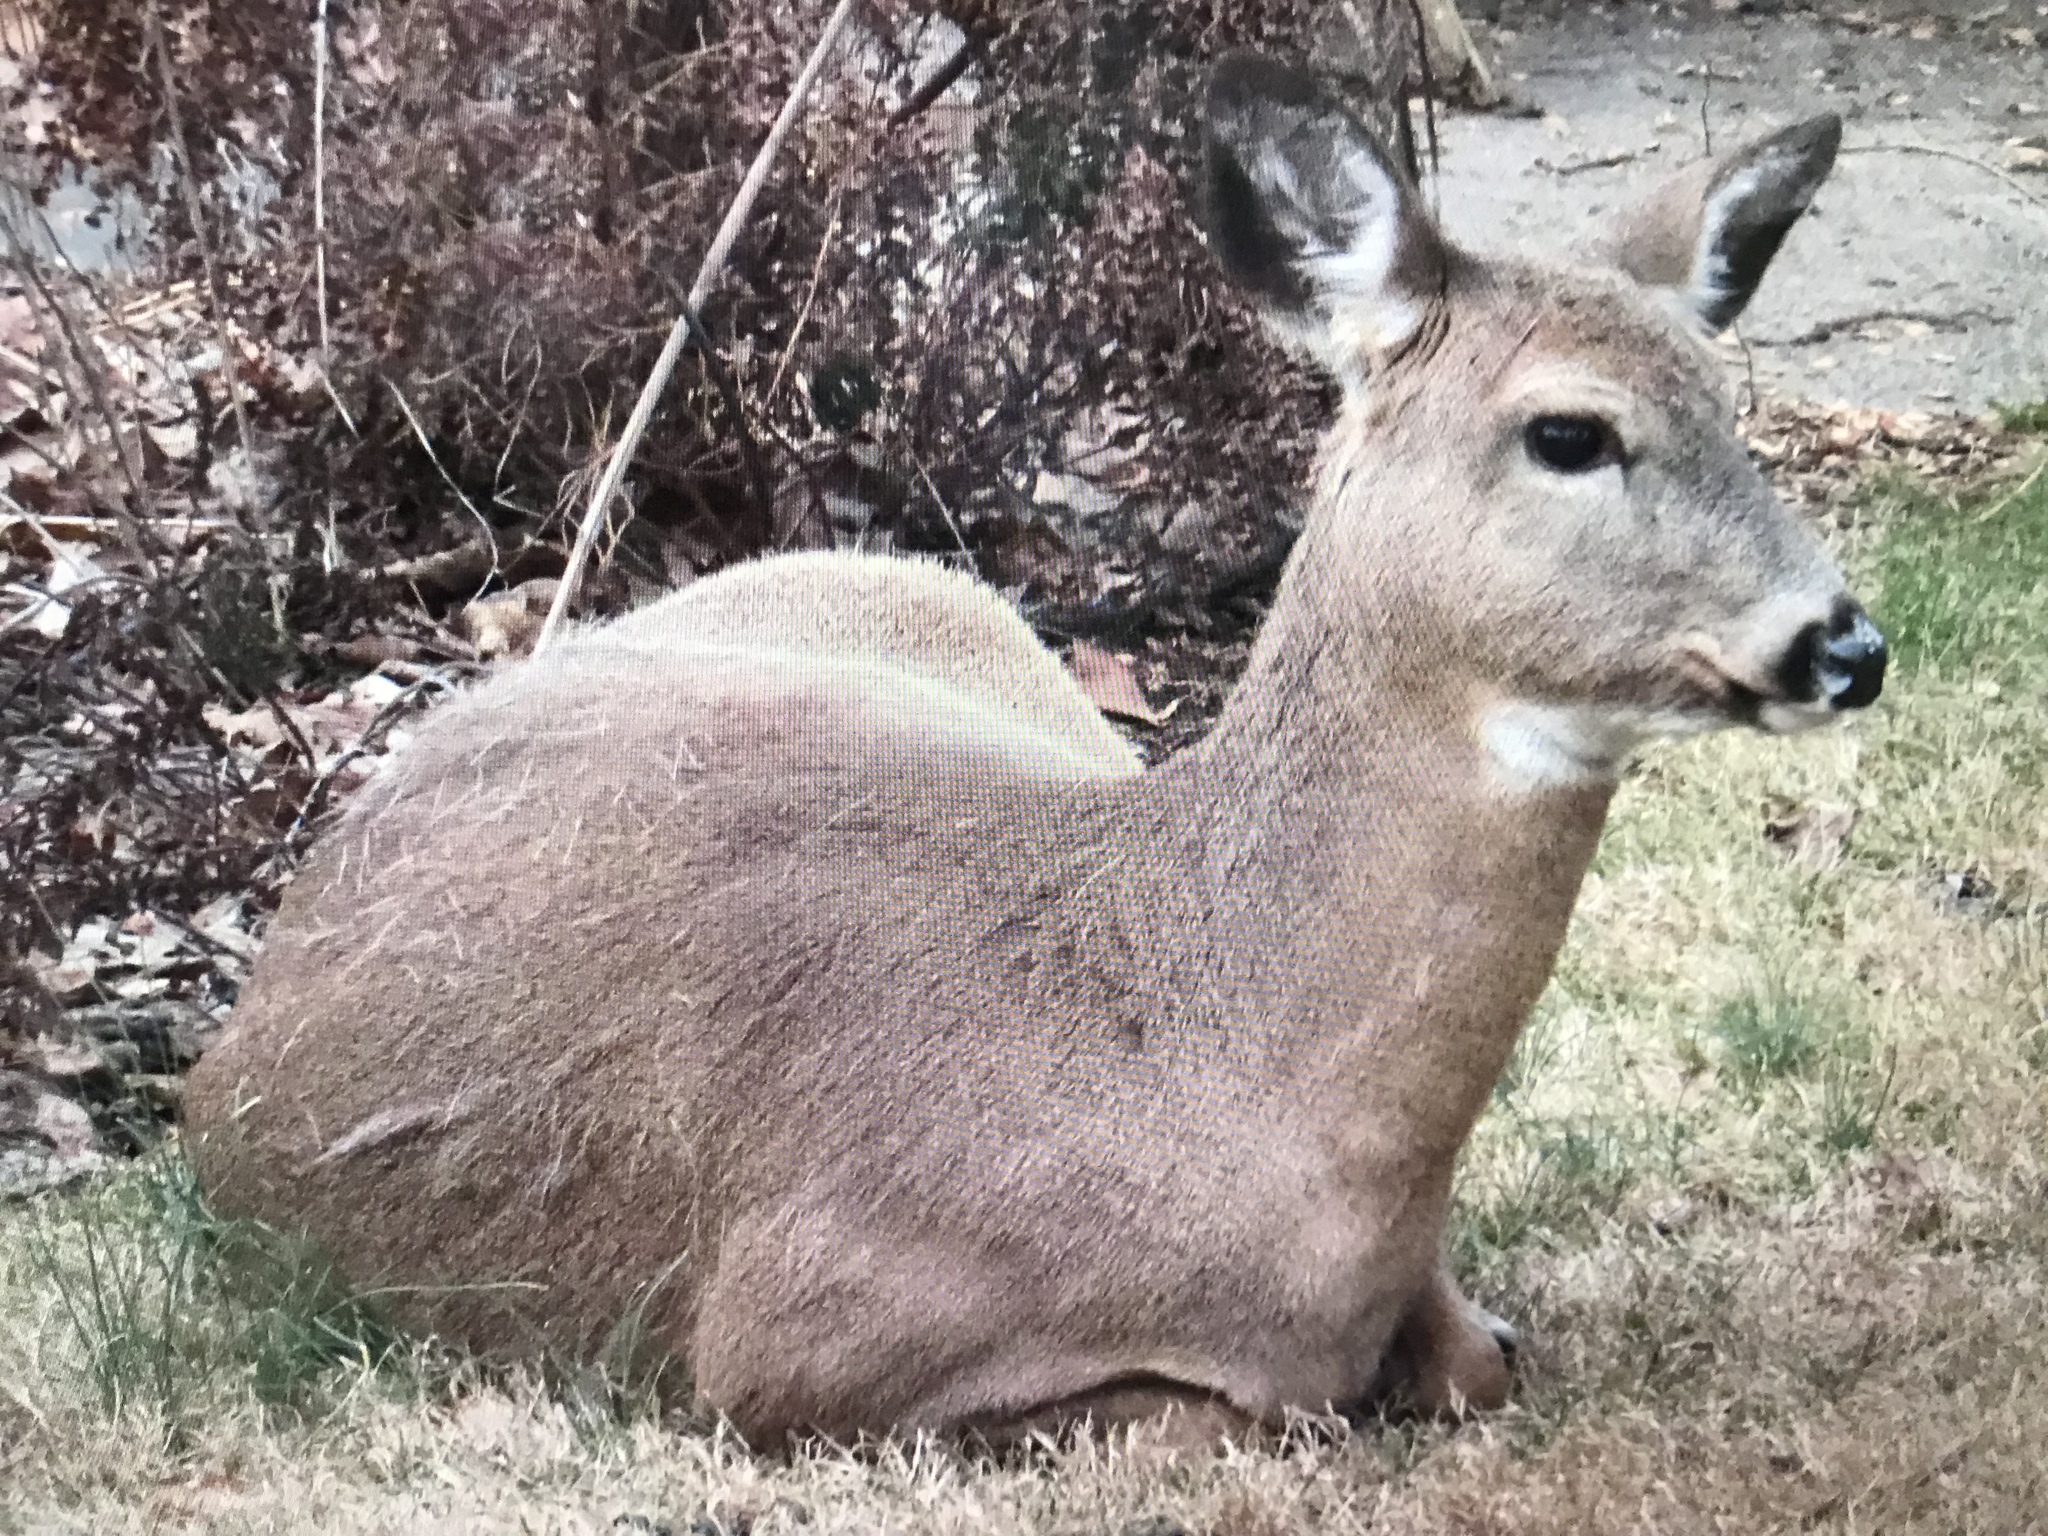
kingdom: Animalia
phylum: Chordata
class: Mammalia
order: Artiodactyla
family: Cervidae
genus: Odocoileus
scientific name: Odocoileus virginianus
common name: White-tailed deer
